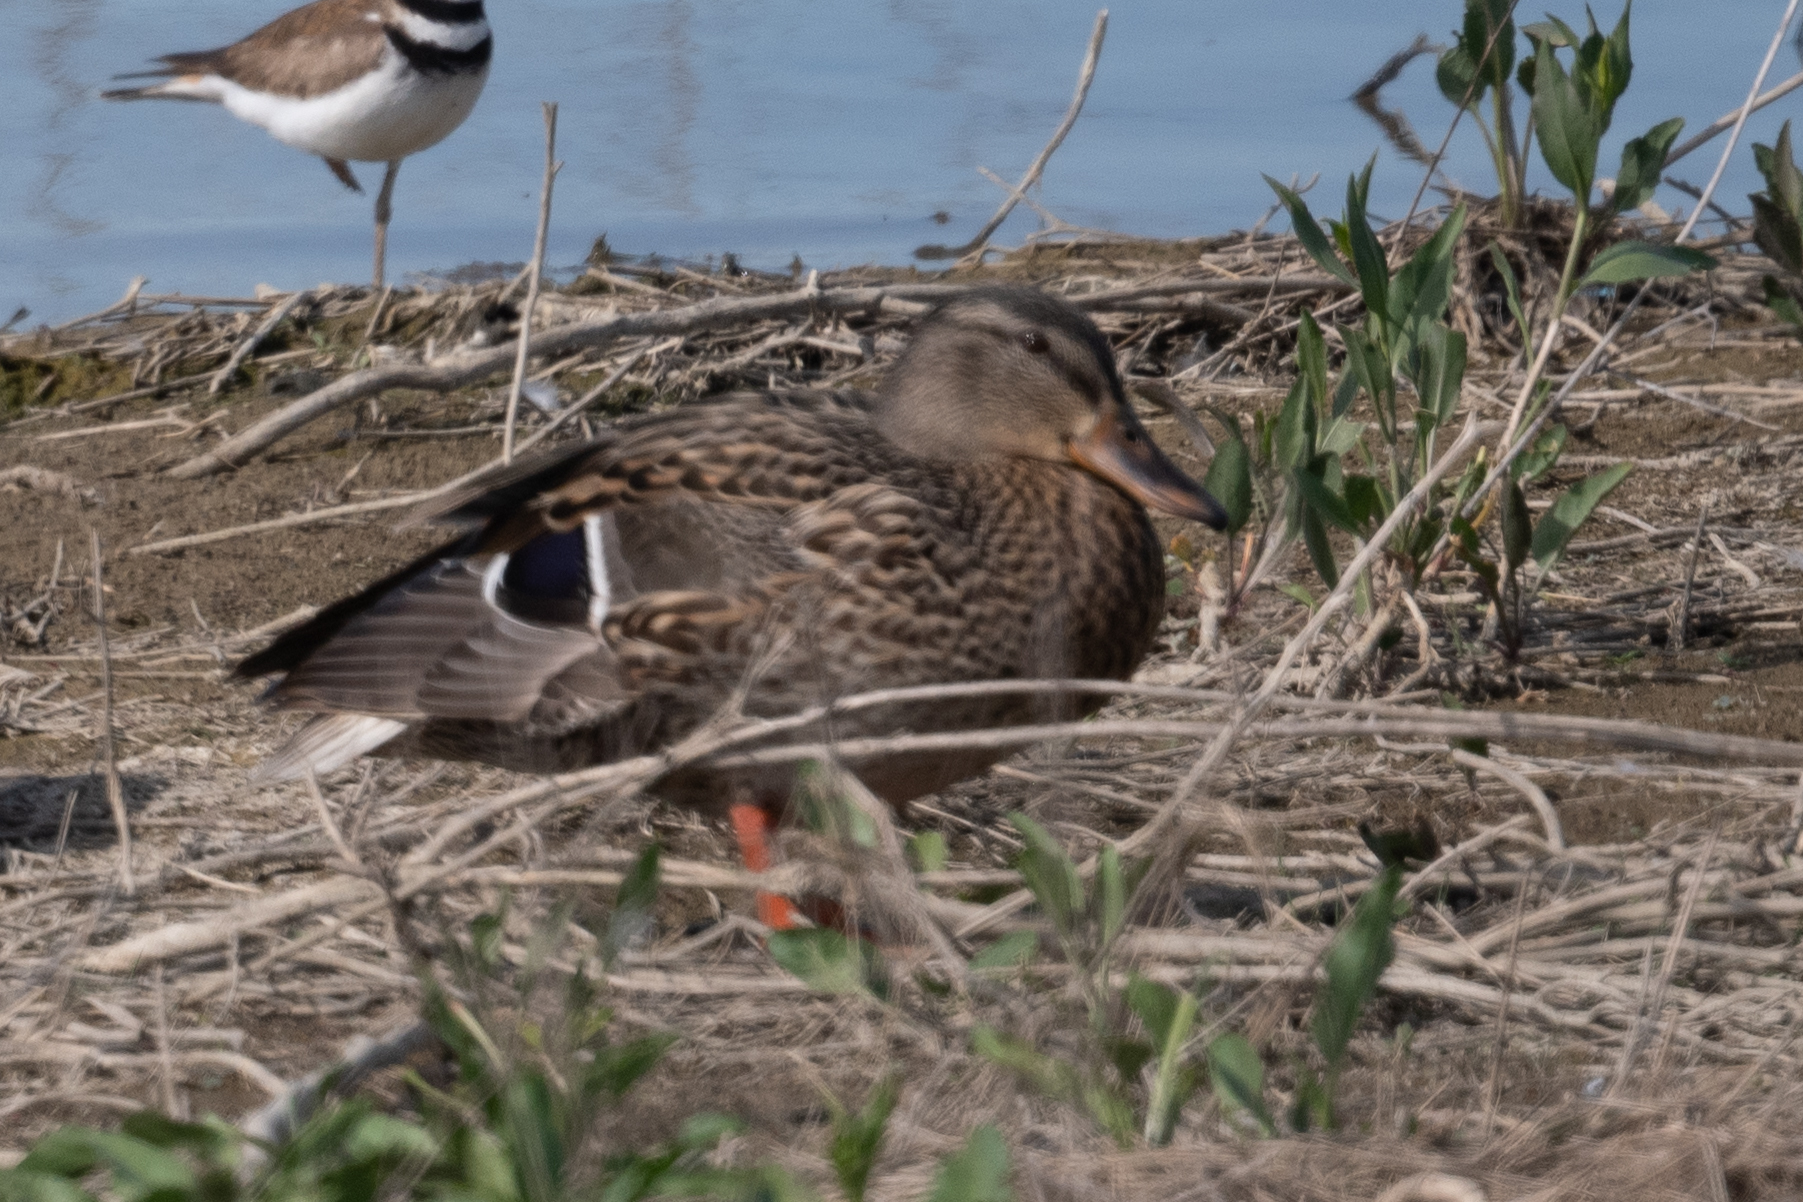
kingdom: Animalia
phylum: Chordata
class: Aves
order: Anseriformes
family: Anatidae
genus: Anas
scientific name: Anas platyrhynchos
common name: Mallard
